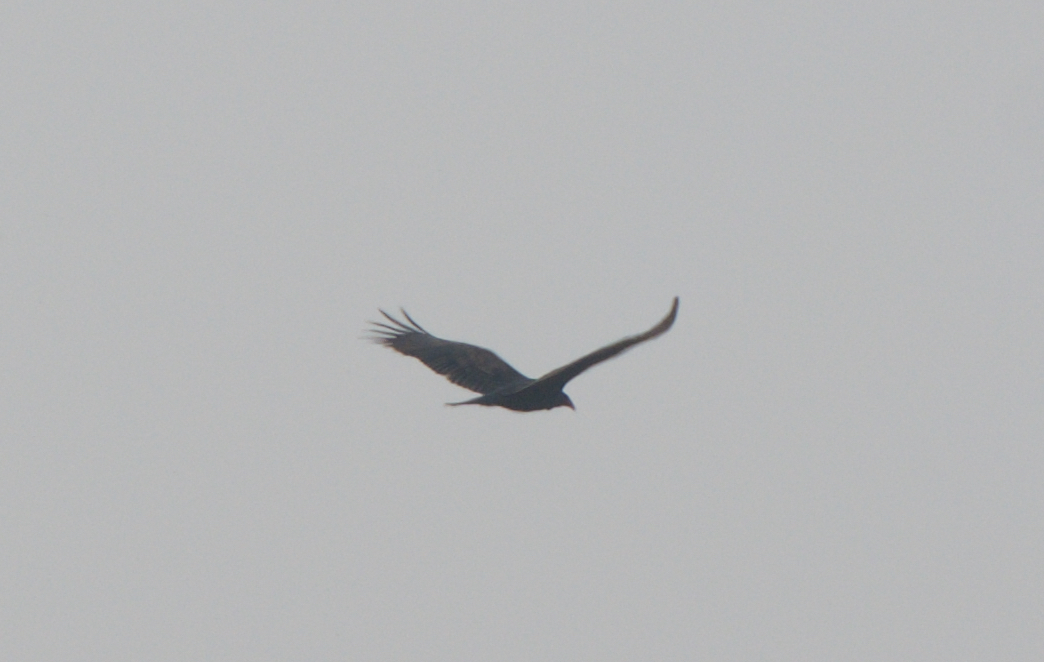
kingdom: Animalia
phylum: Chordata
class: Aves
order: Accipitriformes
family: Cathartidae
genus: Cathartes
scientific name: Cathartes aura
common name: Turkey vulture
